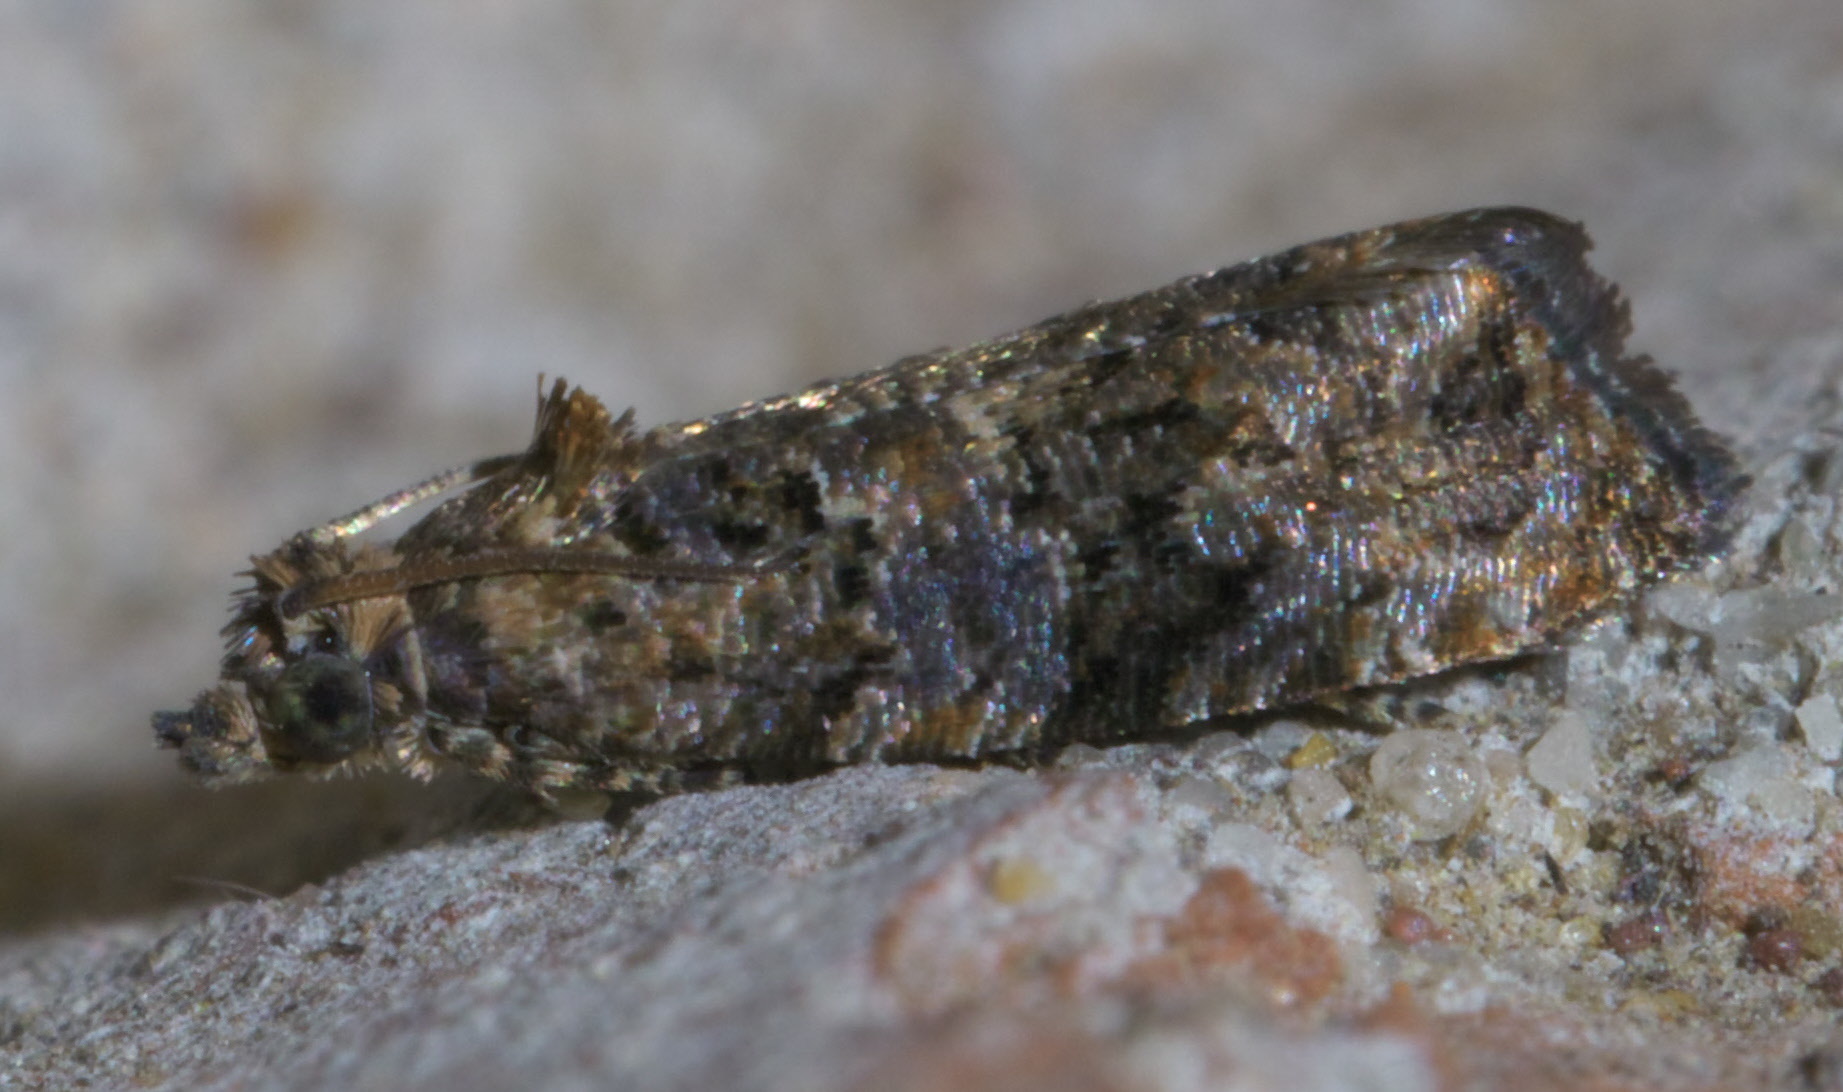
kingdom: Animalia
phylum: Arthropoda
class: Insecta
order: Lepidoptera
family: Tortricidae
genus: Endothenia
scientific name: Endothenia hebesana
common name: Verbena bud moth
